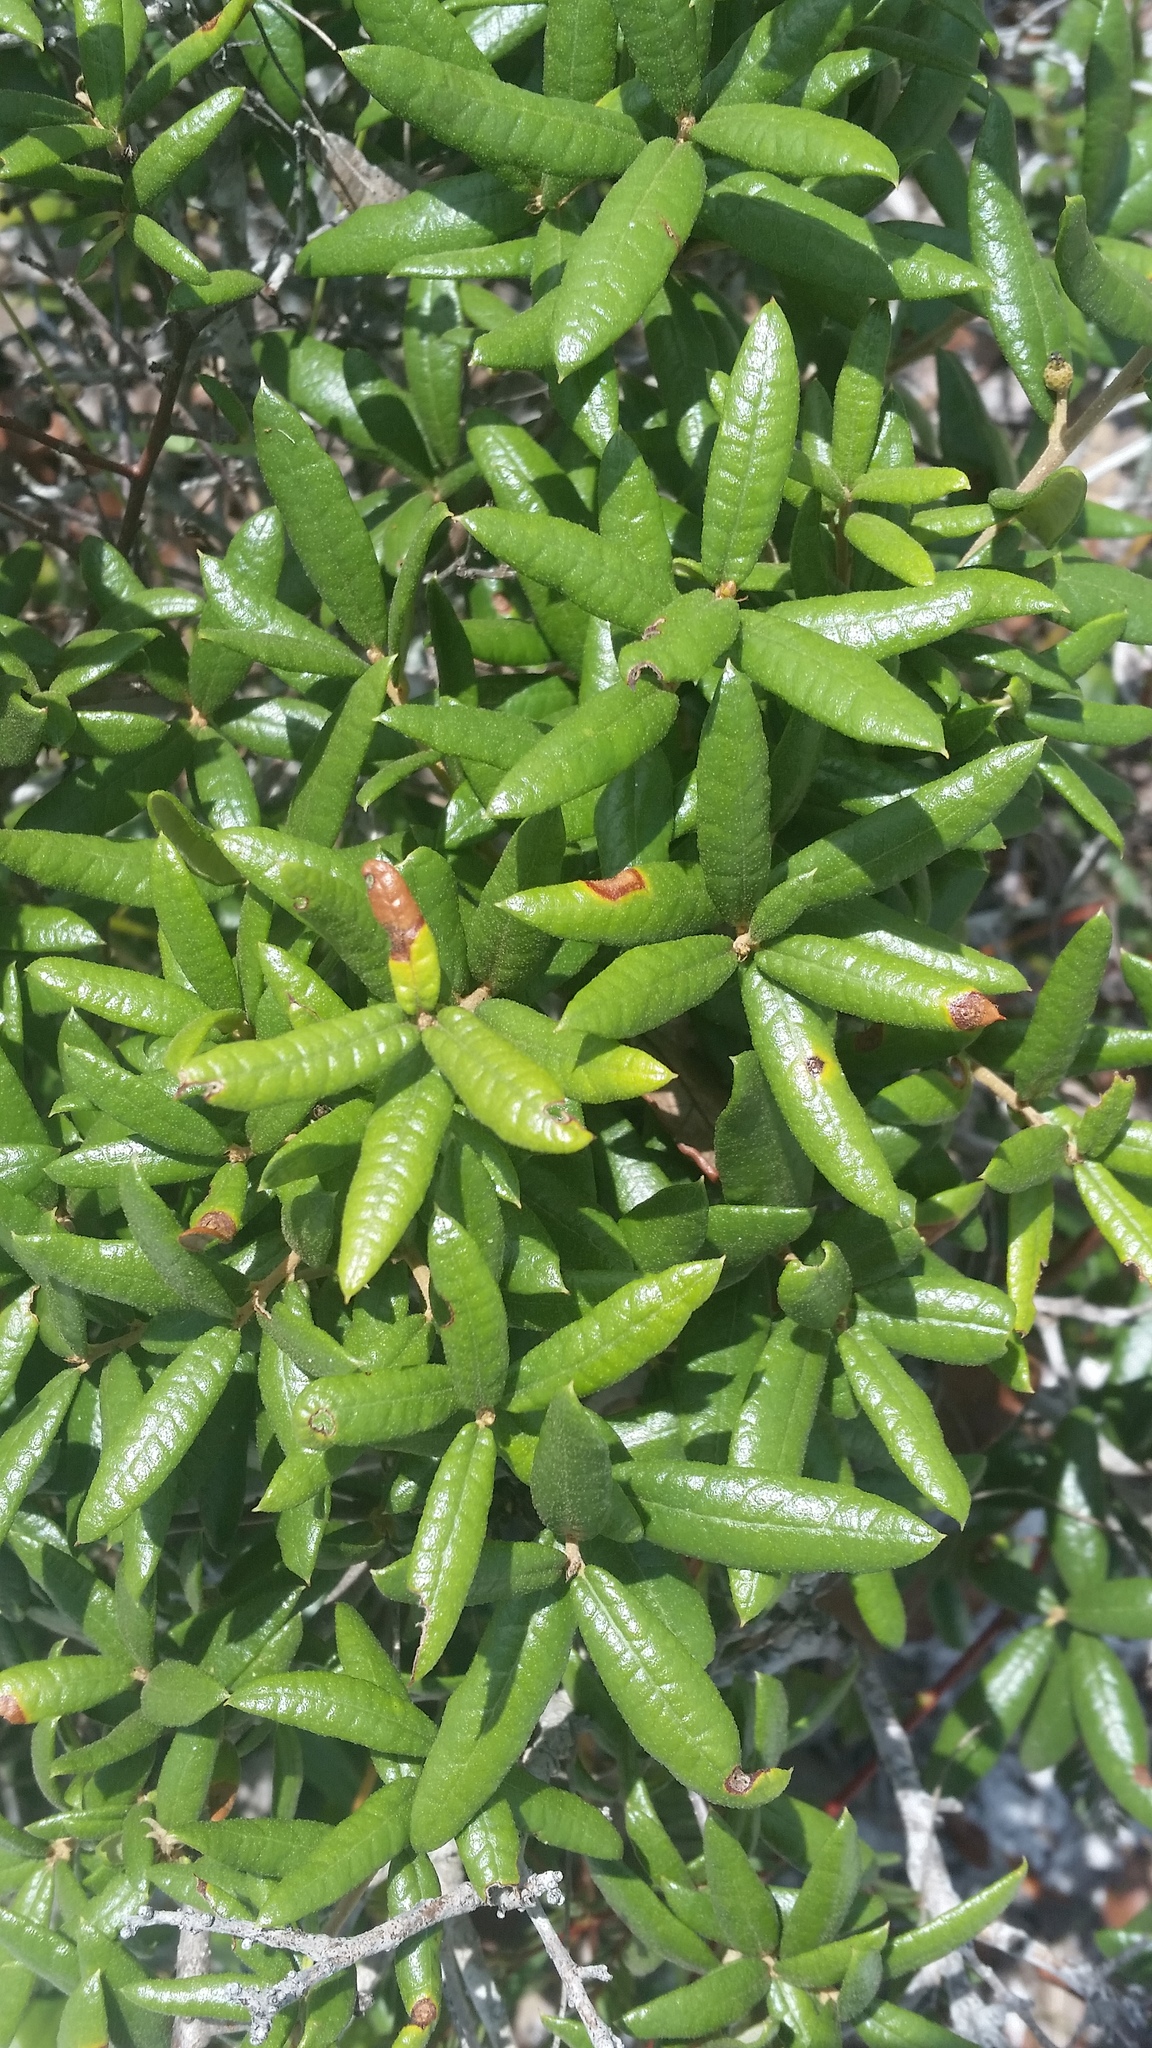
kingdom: Plantae
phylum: Tracheophyta
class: Magnoliopsida
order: Fagales
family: Fagaceae
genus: Quercus
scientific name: Quercus geminata
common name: Sand live oak
